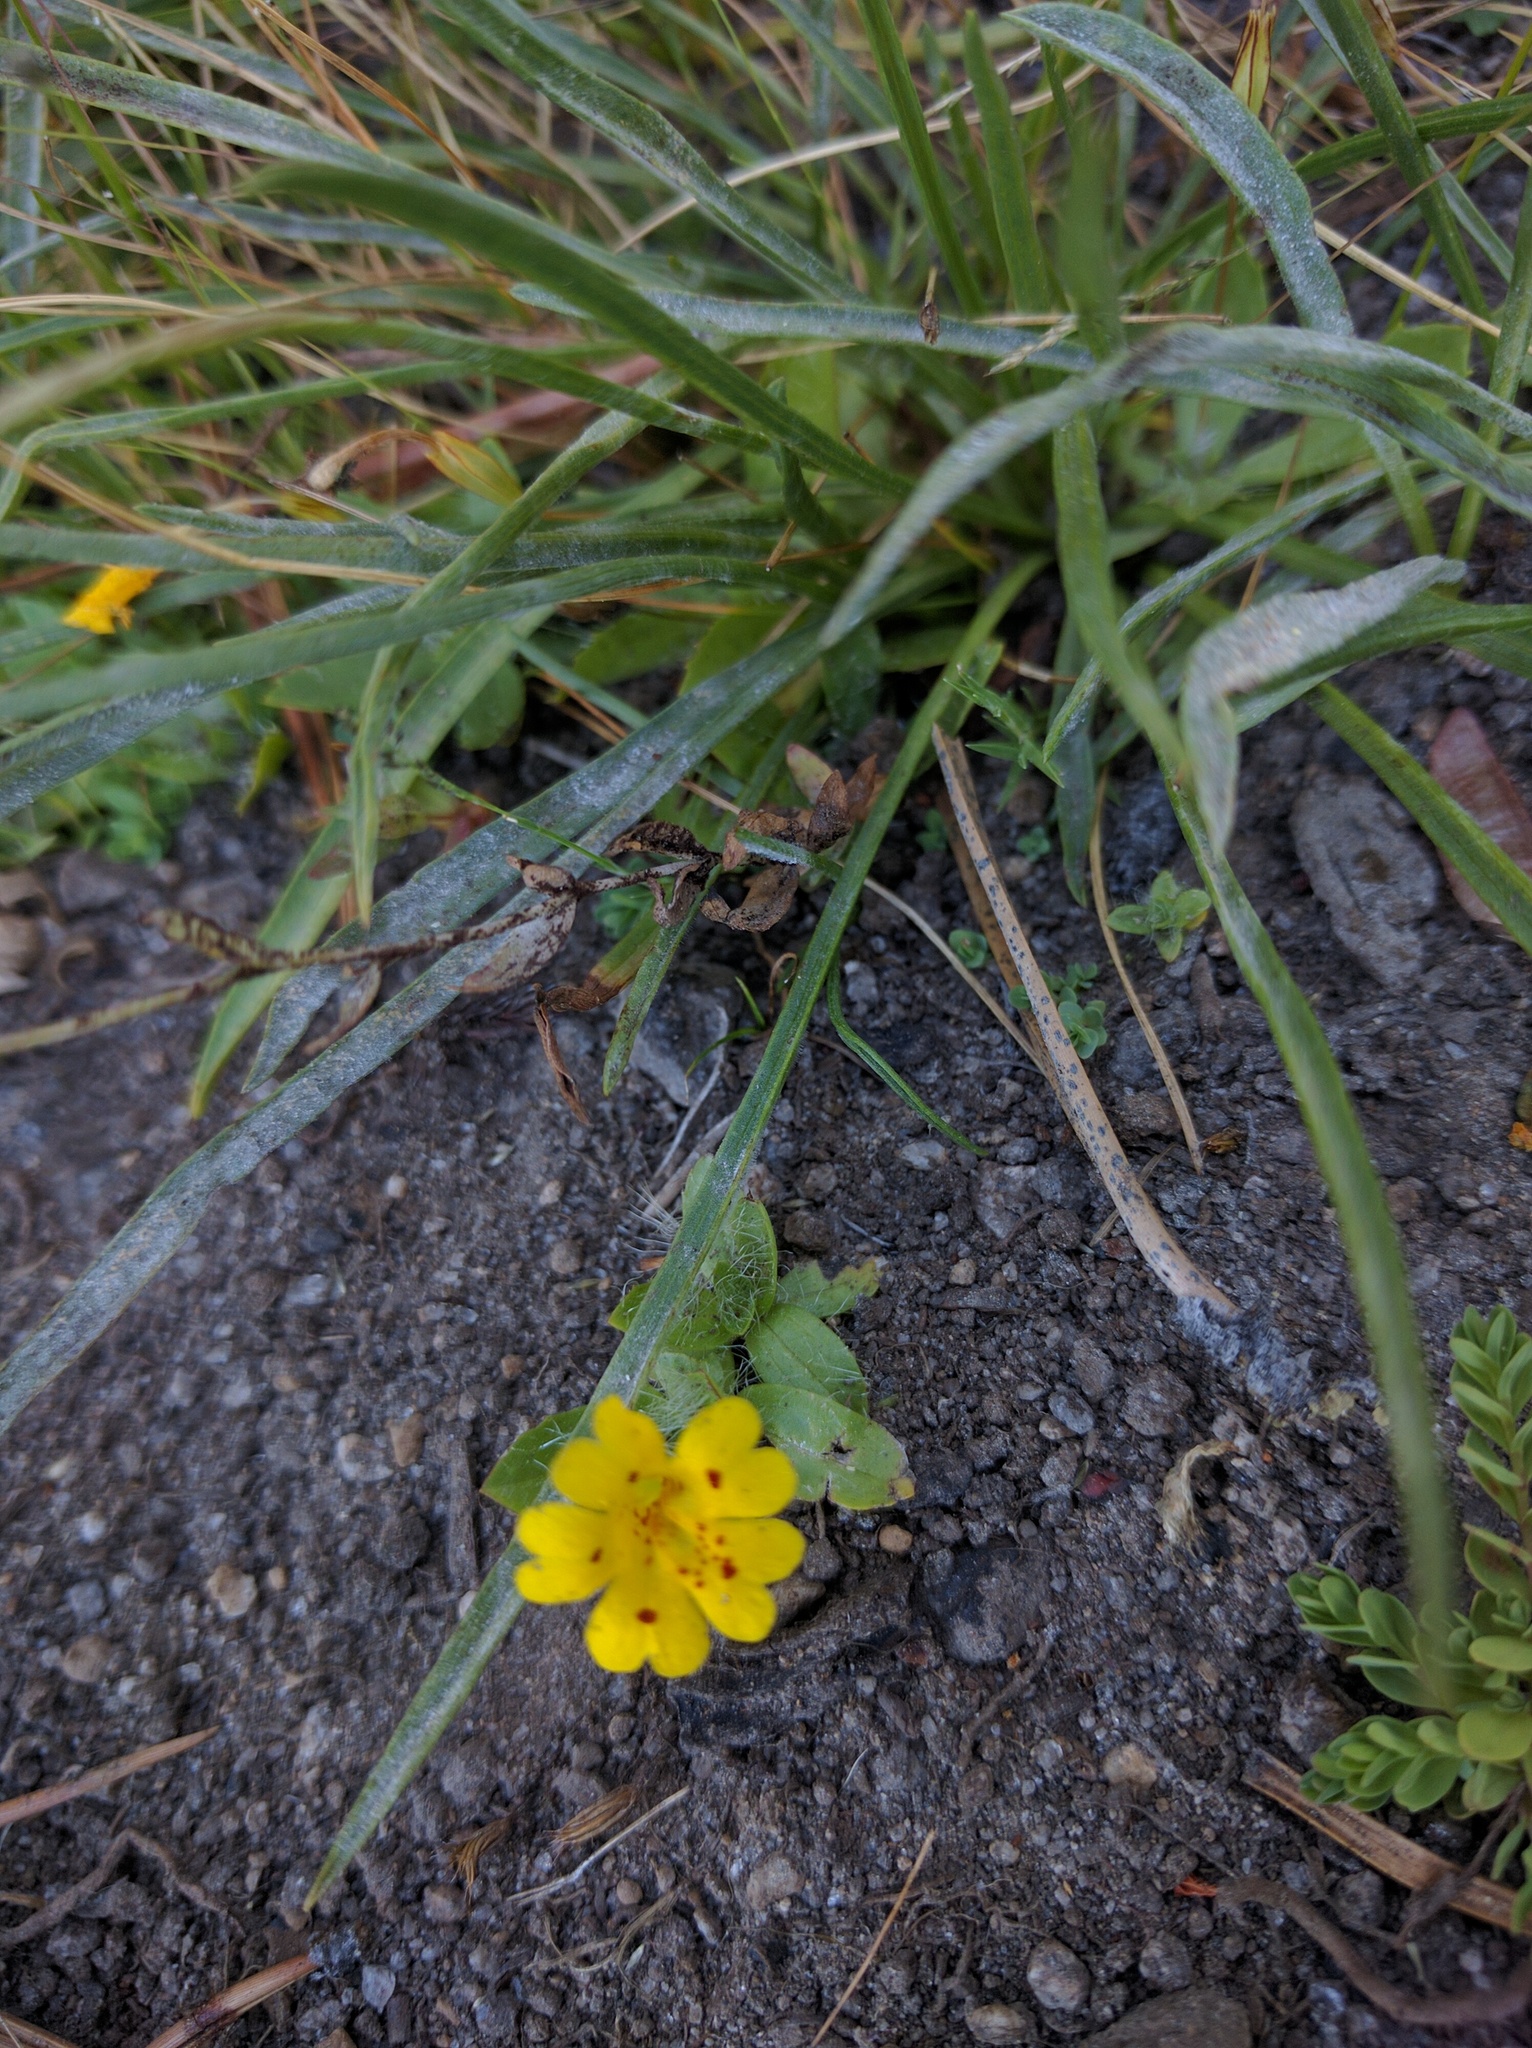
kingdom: Plantae
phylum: Tracheophyta
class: Magnoliopsida
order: Lamiales
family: Phrymaceae
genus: Erythranthe
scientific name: Erythranthe primuloides
